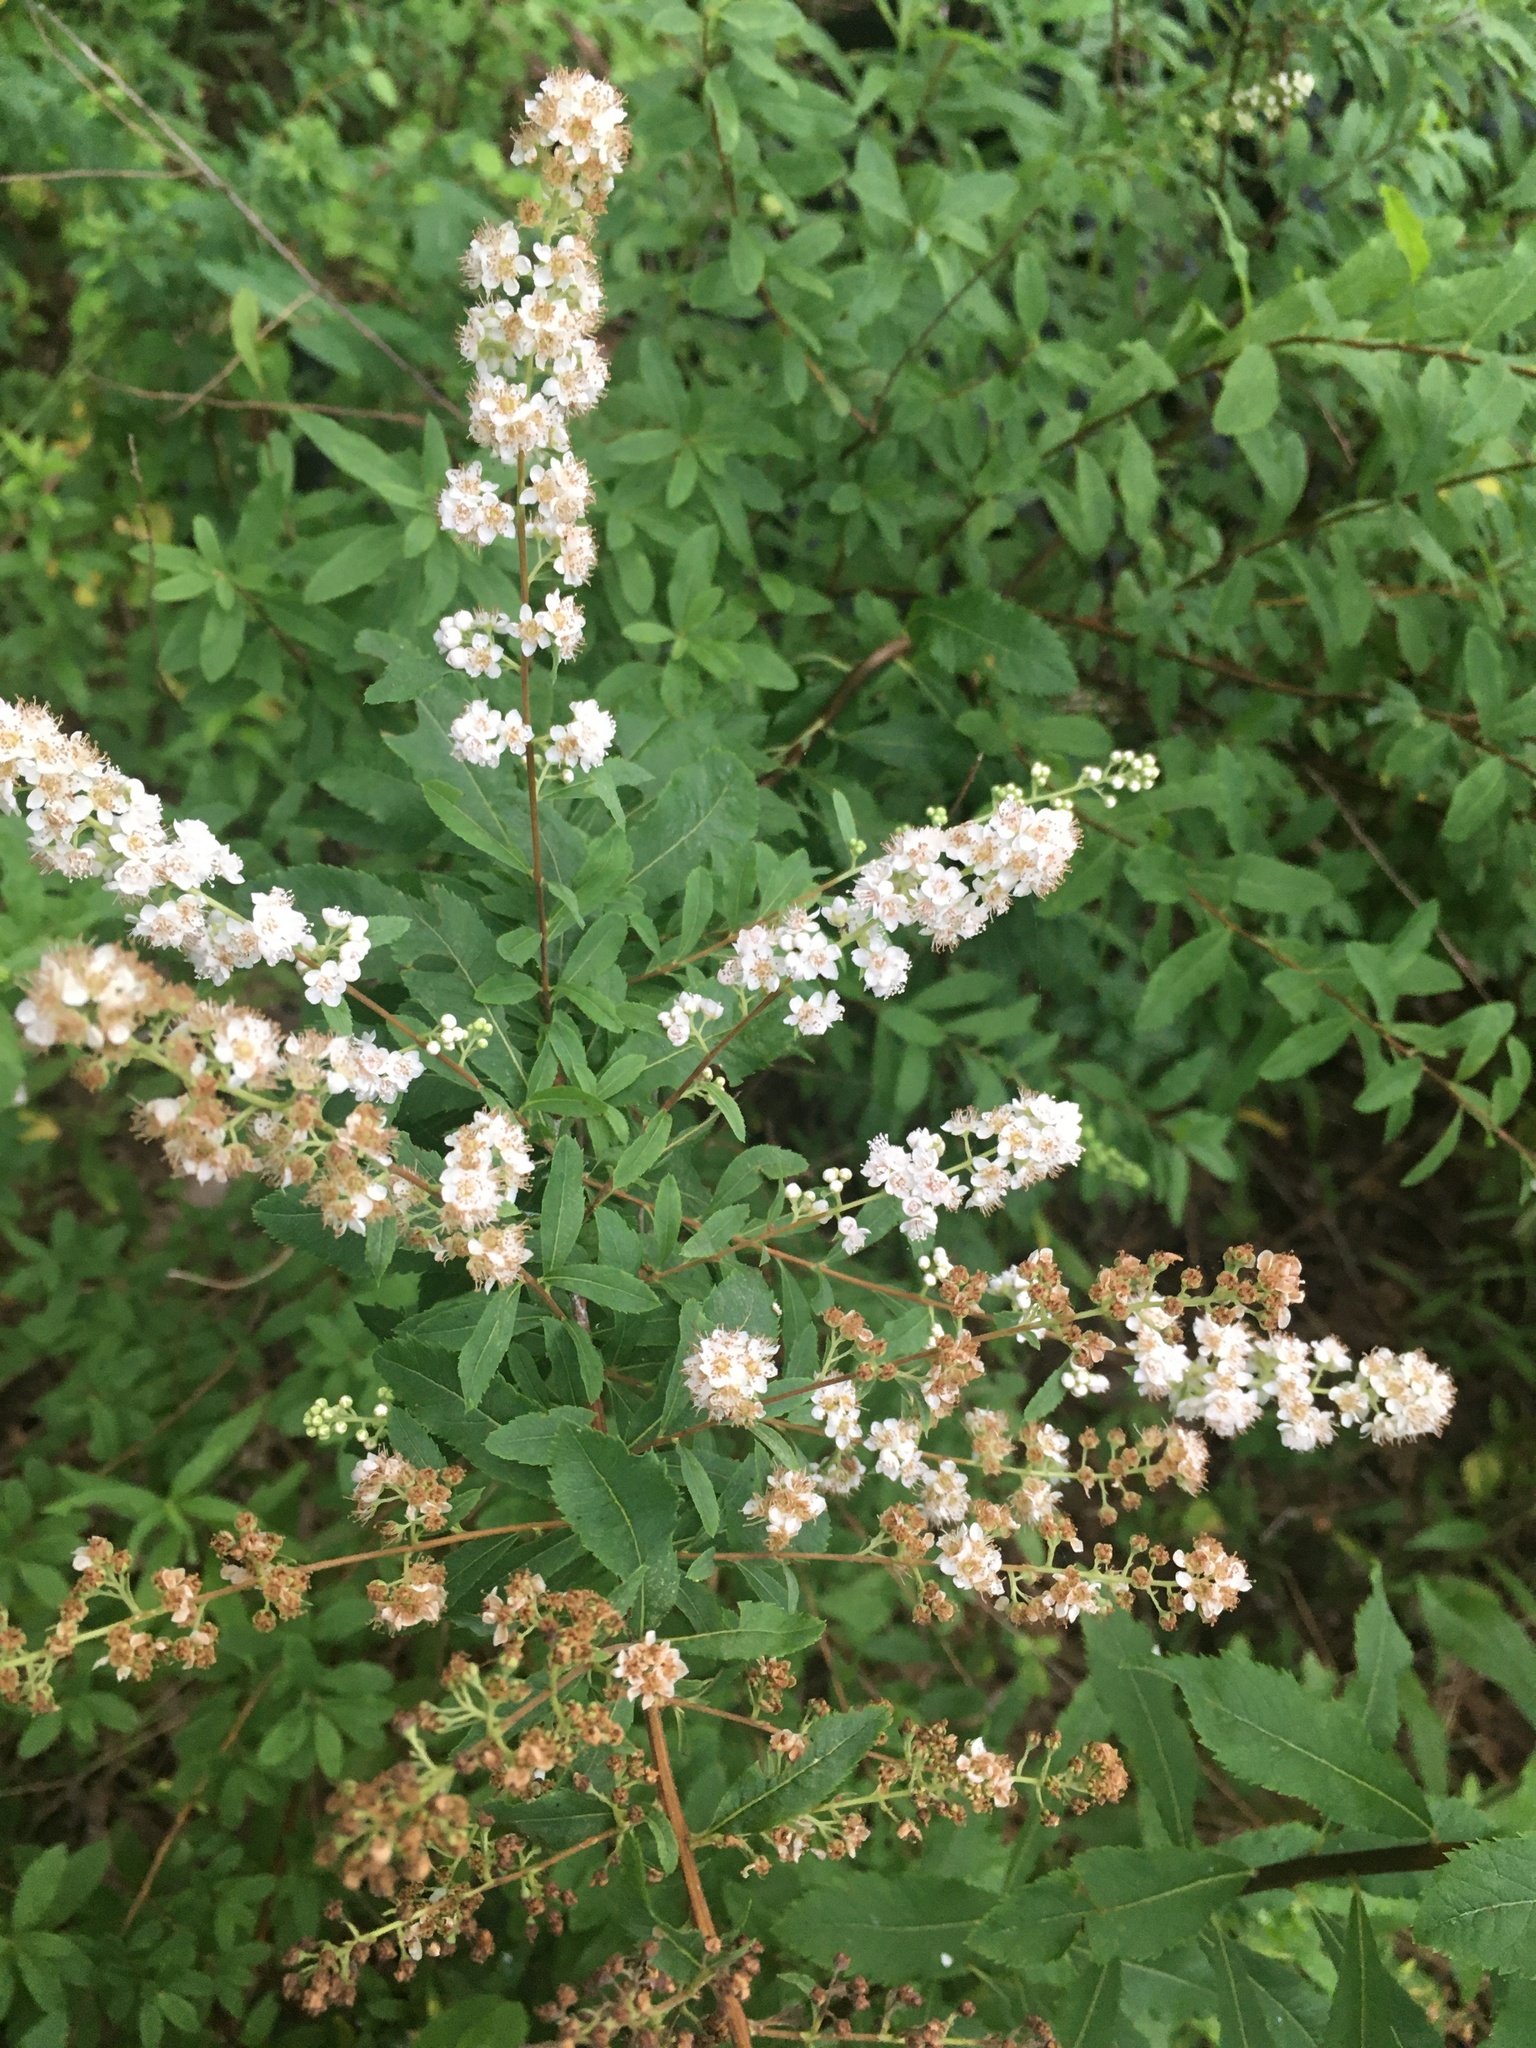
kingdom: Plantae
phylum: Tracheophyta
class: Magnoliopsida
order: Rosales
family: Rosaceae
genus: Spiraea
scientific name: Spiraea alba
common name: Pale bridewort
